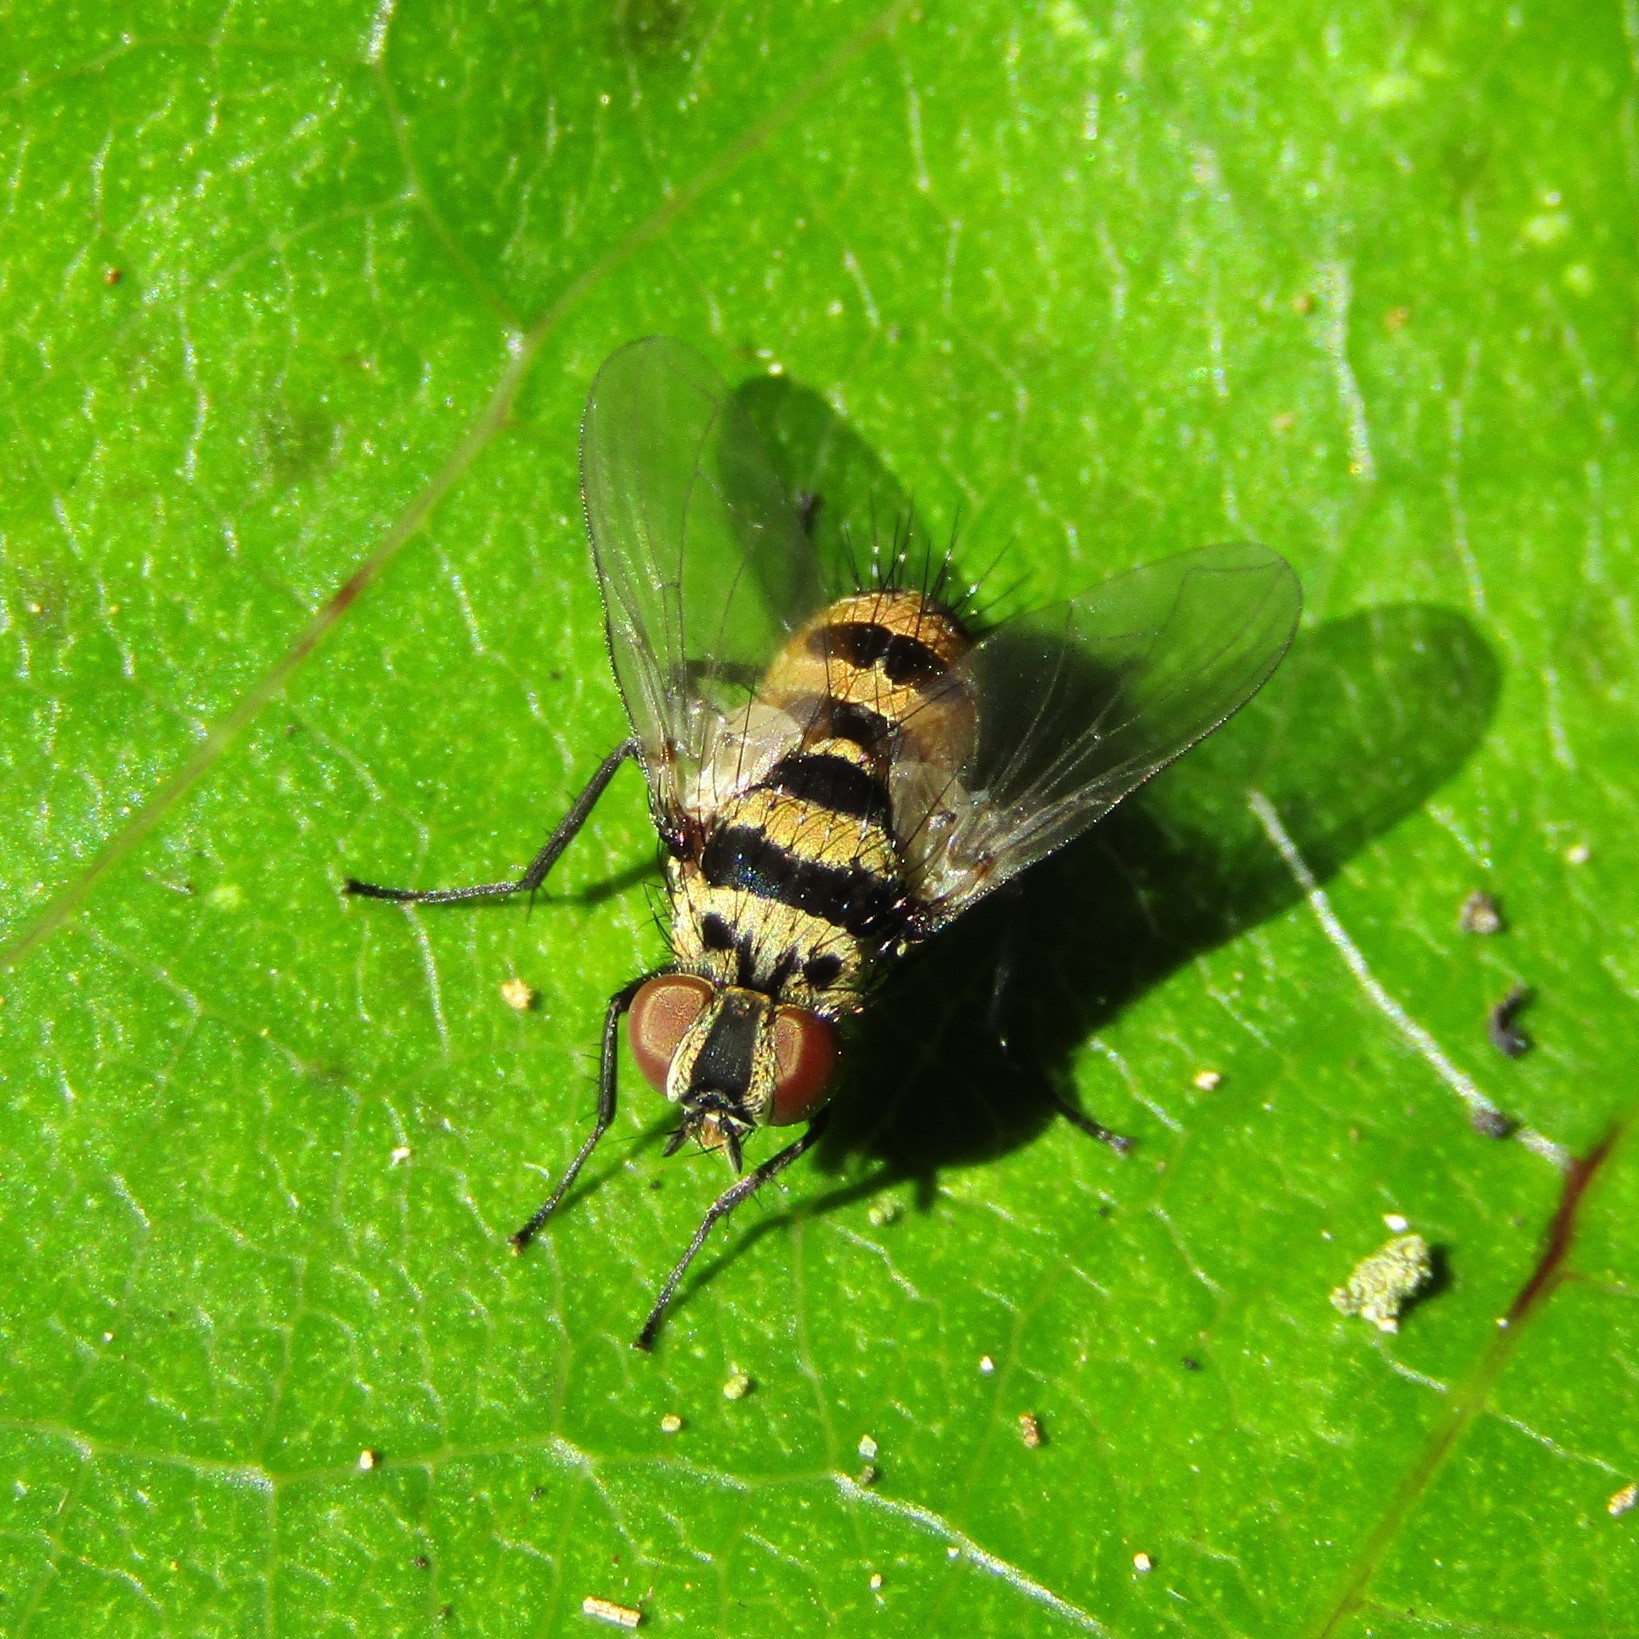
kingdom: Animalia
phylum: Arthropoda
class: Insecta
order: Diptera
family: Tachinidae
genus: Trigonospila
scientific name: Trigonospila brevifacies
